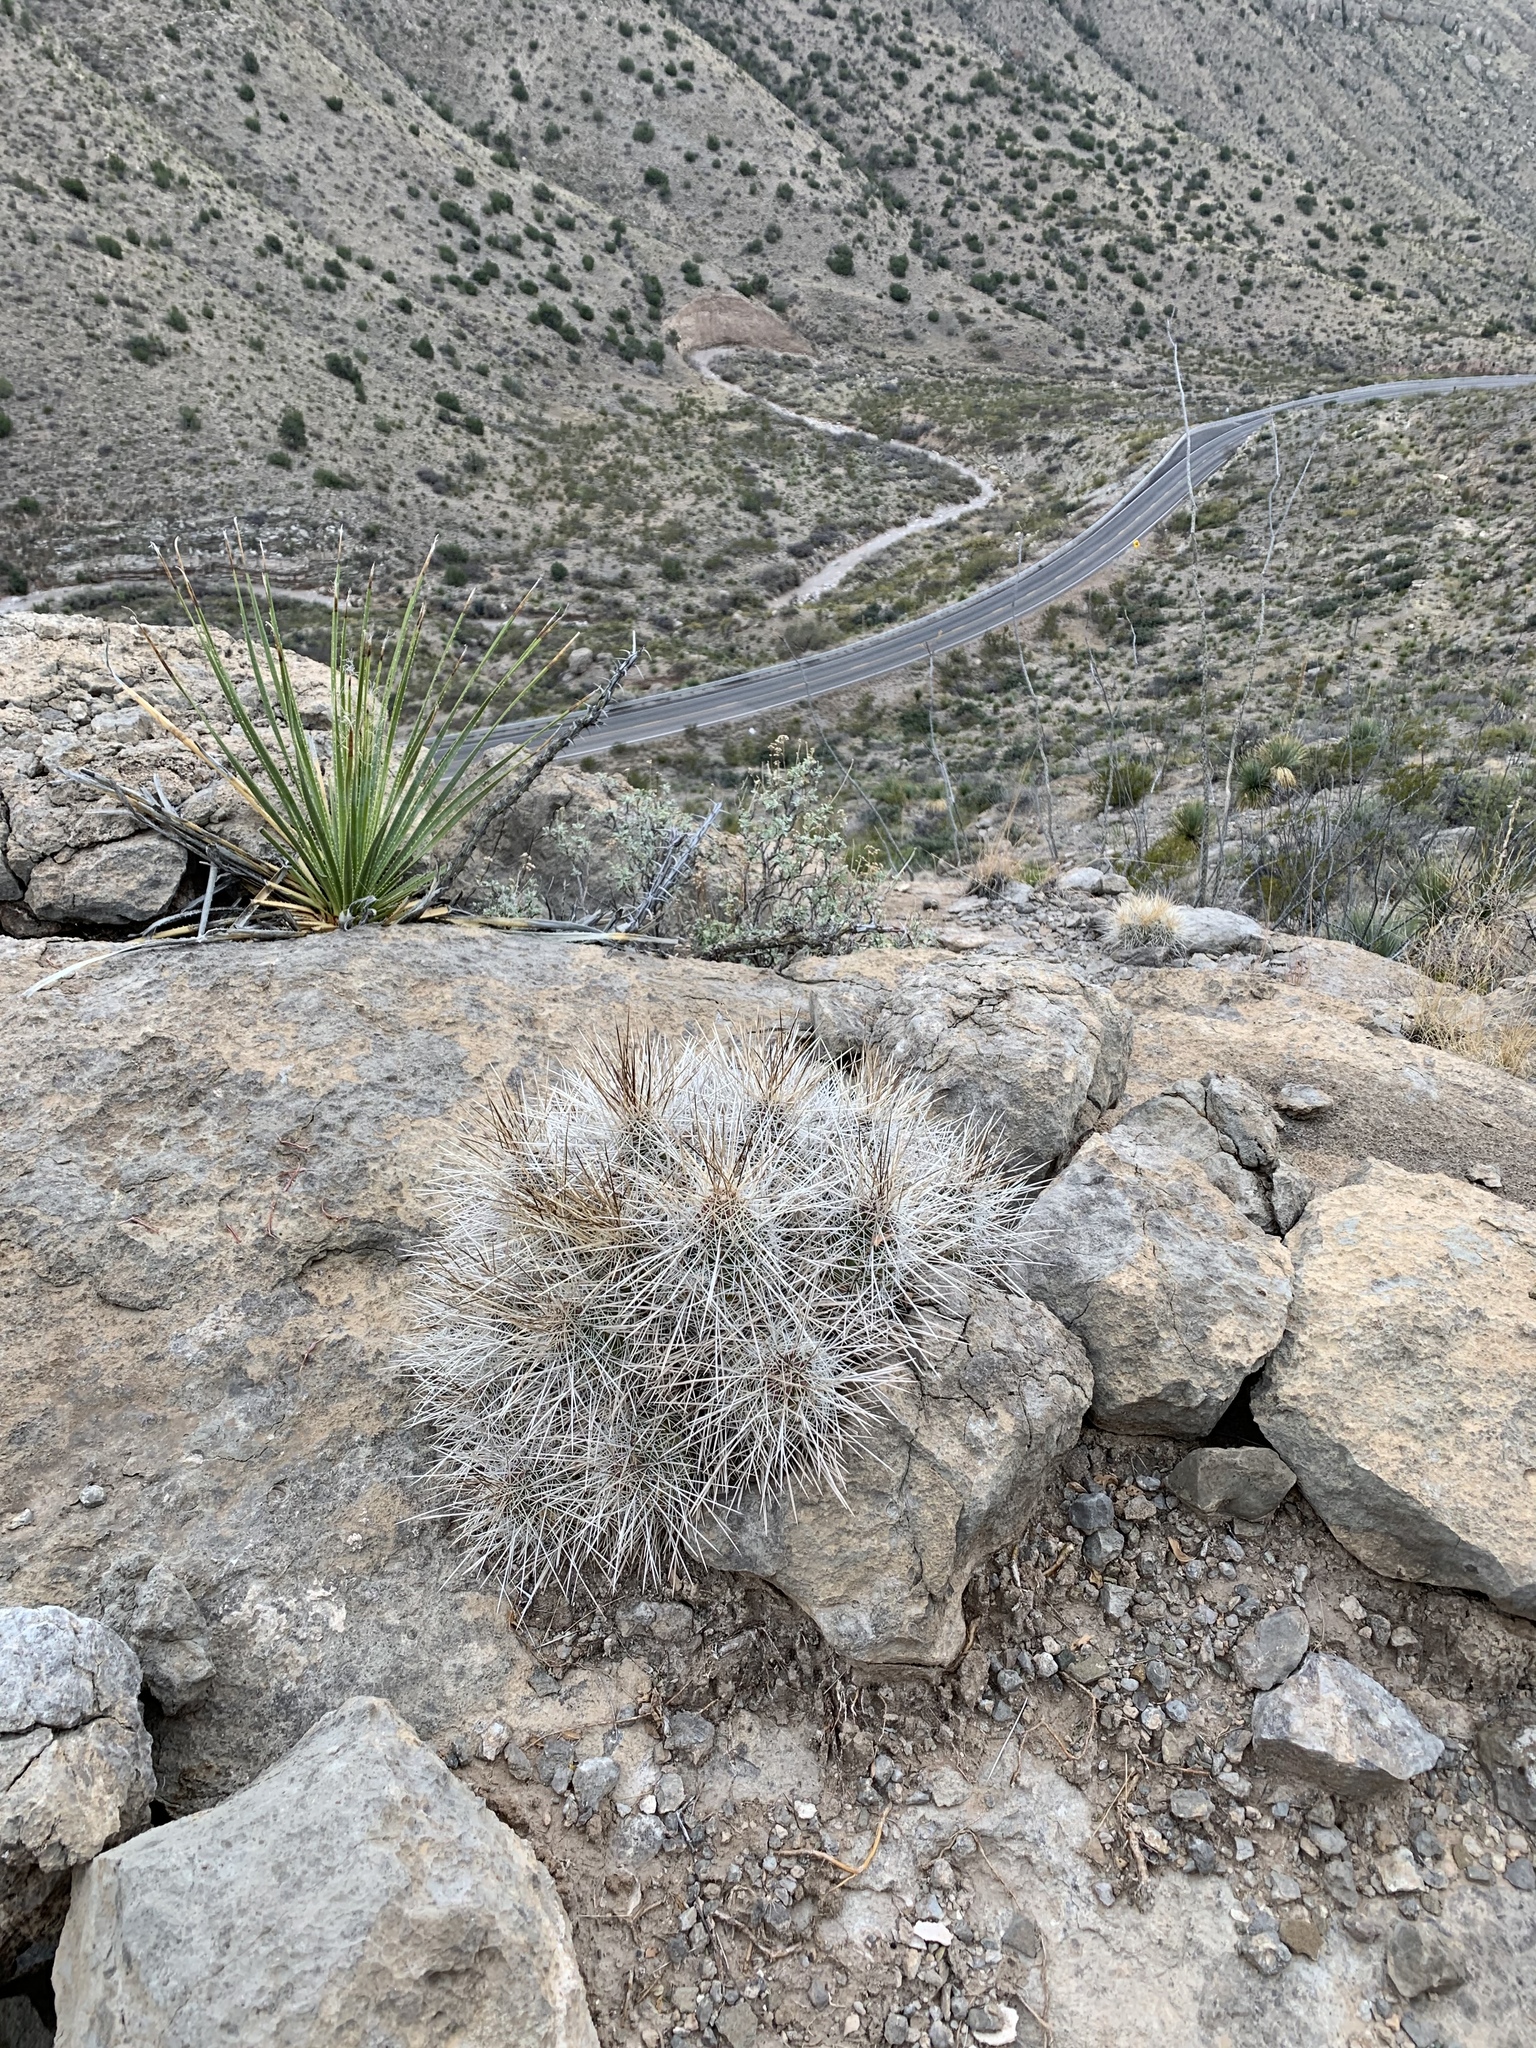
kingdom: Plantae
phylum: Tracheophyta
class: Magnoliopsida
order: Caryophyllales
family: Cactaceae
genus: Echinocereus
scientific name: Echinocereus stramineus
